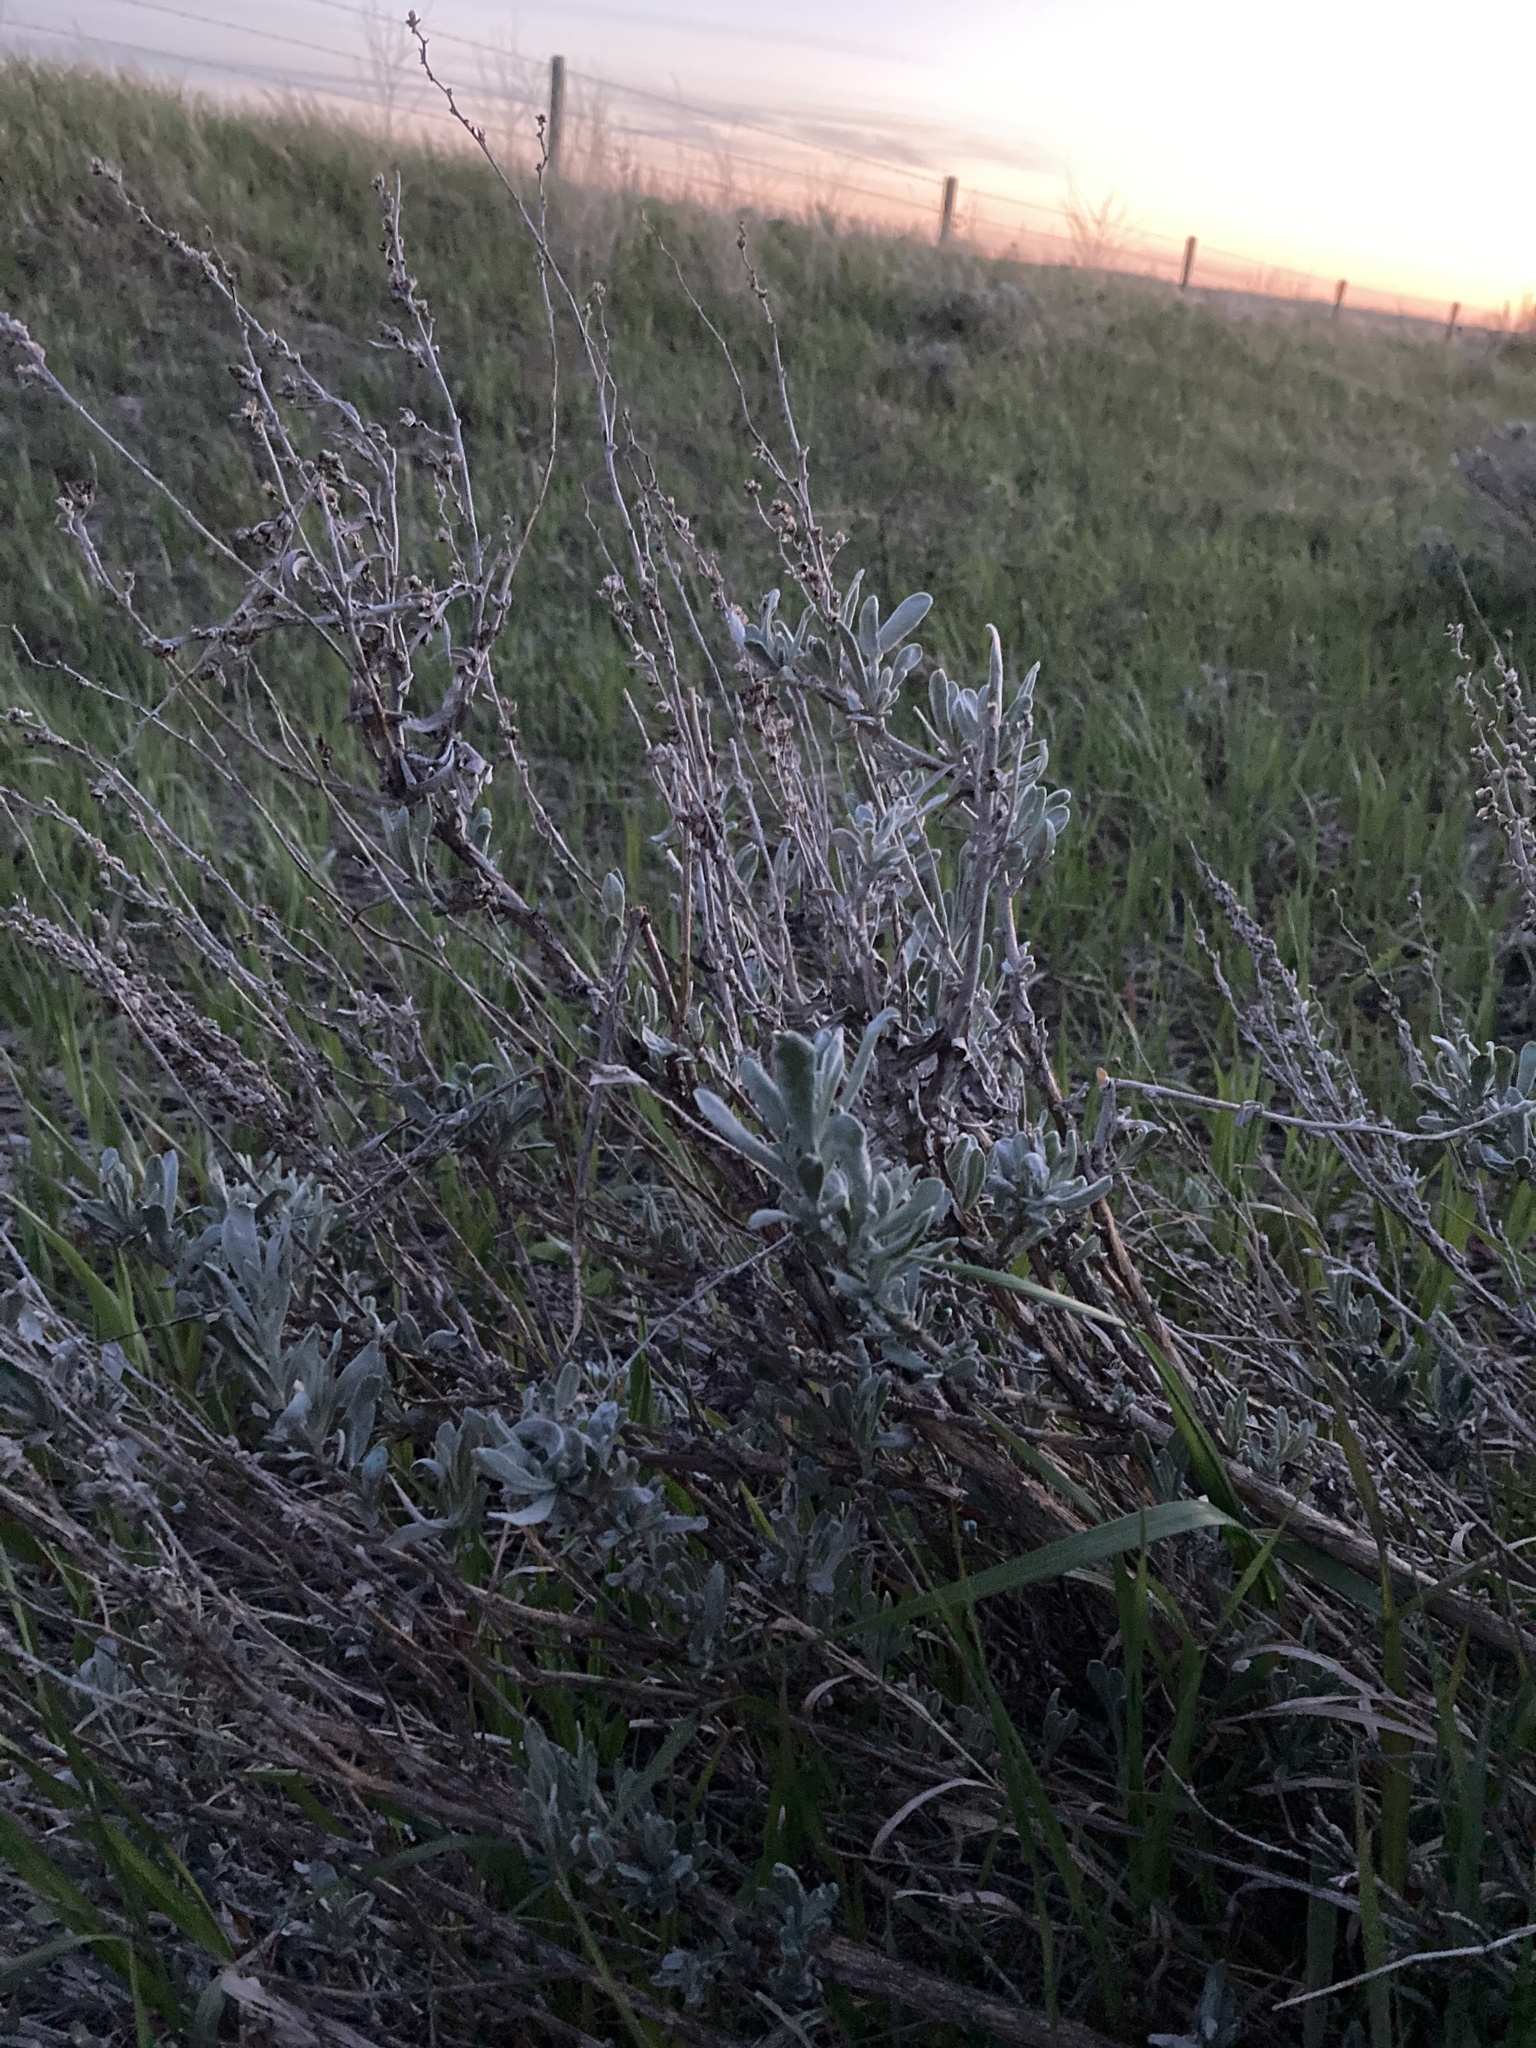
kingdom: Plantae
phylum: Tracheophyta
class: Magnoliopsida
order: Asterales
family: Asteraceae
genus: Artemisia
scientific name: Artemisia cana
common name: Silver sagebrush
